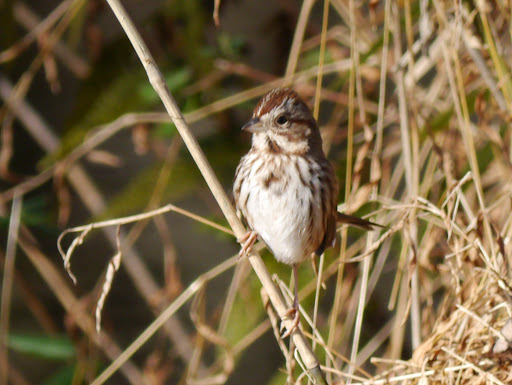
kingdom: Animalia
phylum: Chordata
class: Aves
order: Passeriformes
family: Passerellidae
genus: Melospiza
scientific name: Melospiza melodia
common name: Song sparrow
